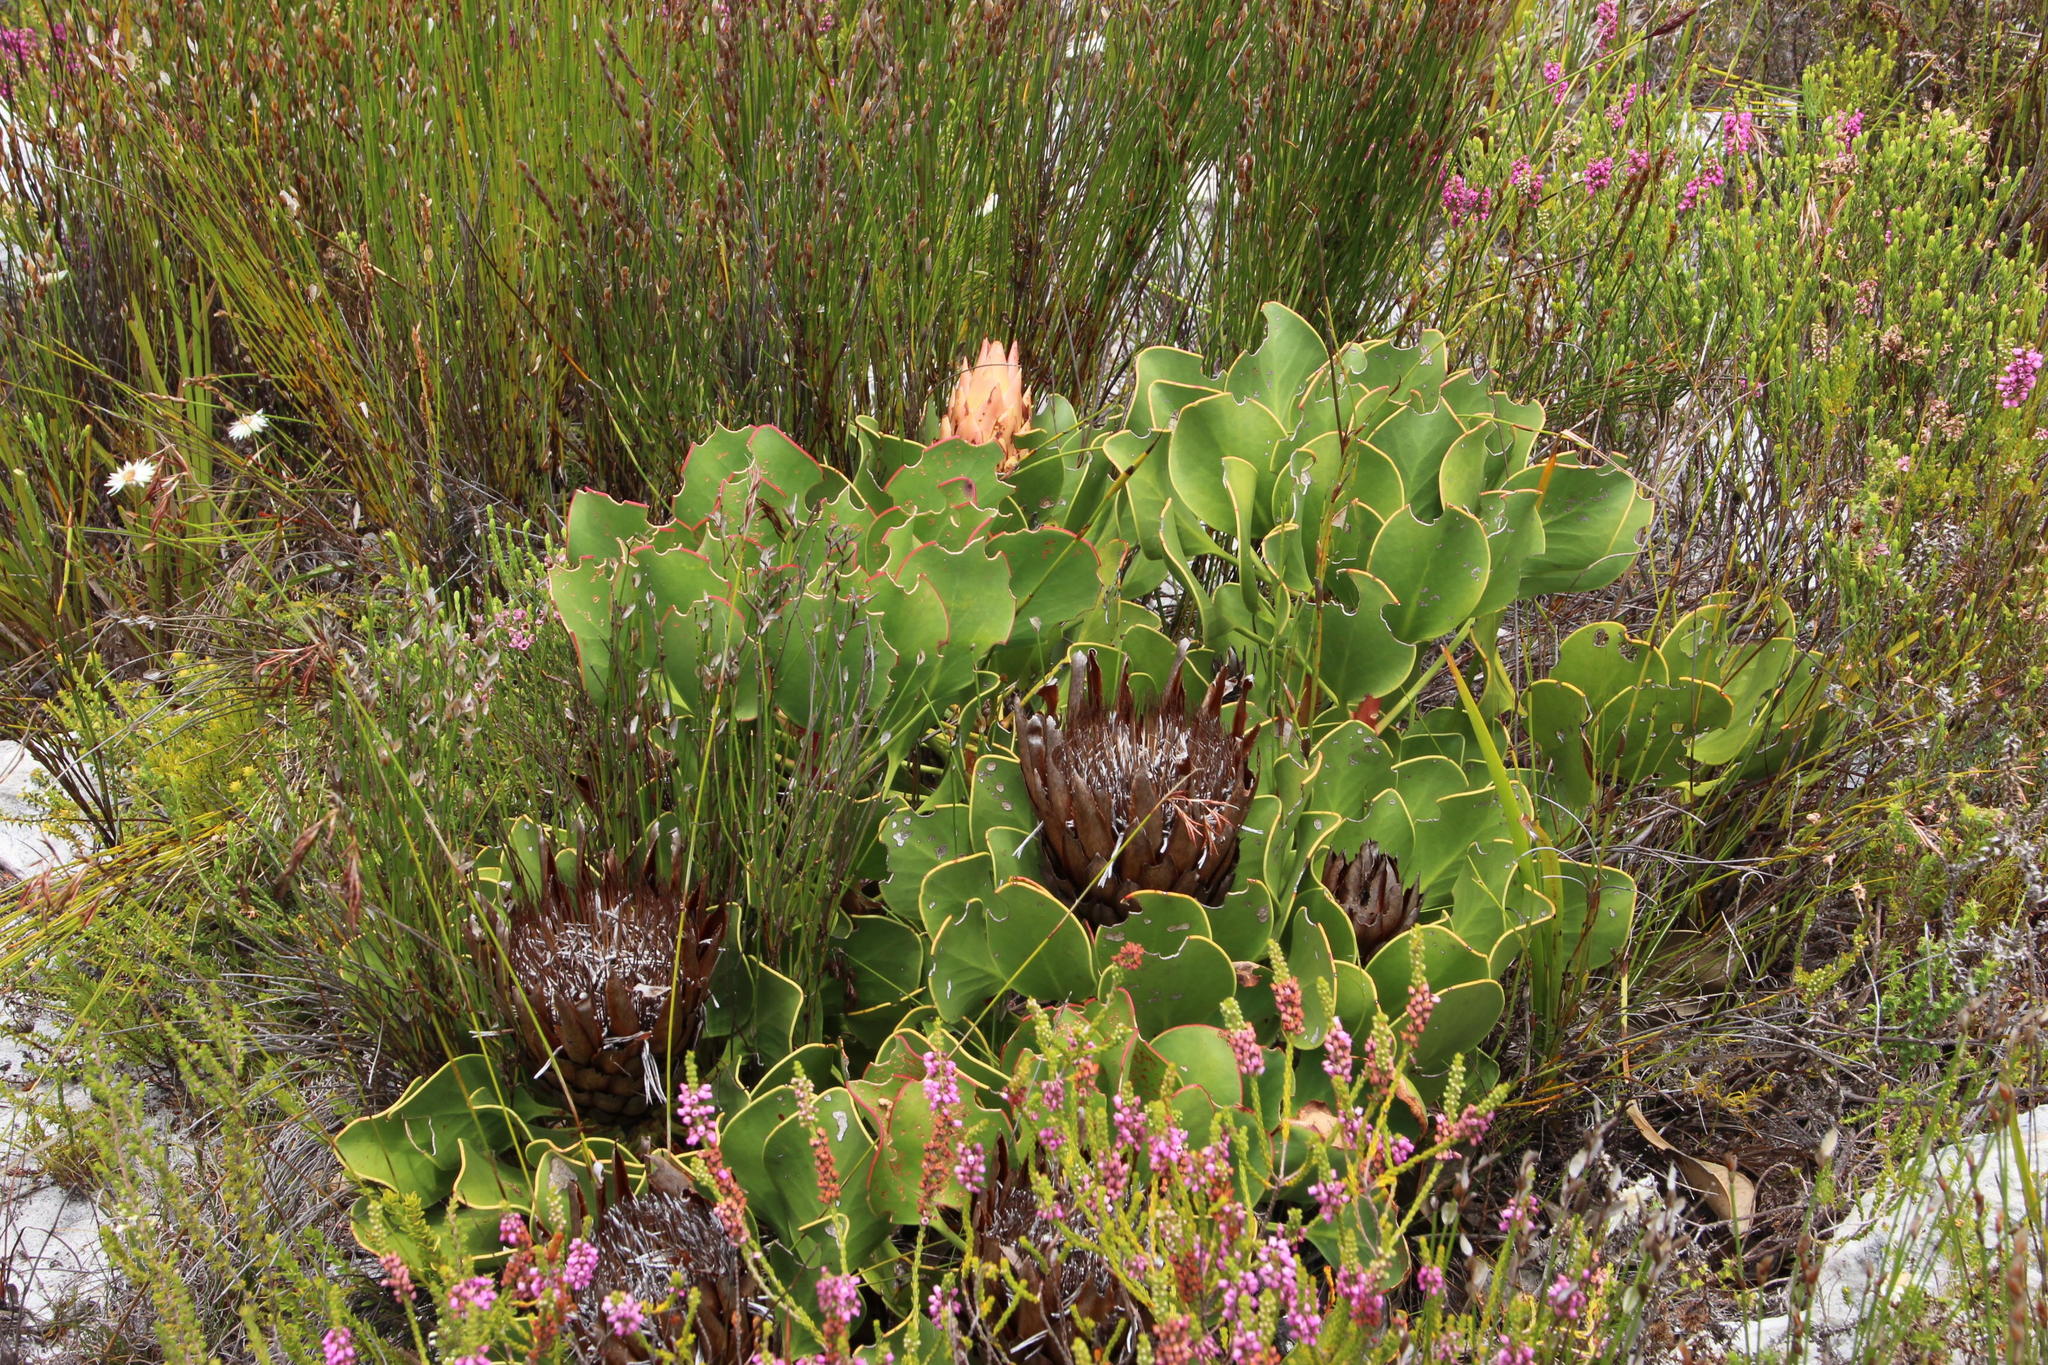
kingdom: Plantae
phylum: Tracheophyta
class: Magnoliopsida
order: Proteales
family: Proteaceae
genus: Protea
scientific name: Protea cynaroides
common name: King protea
